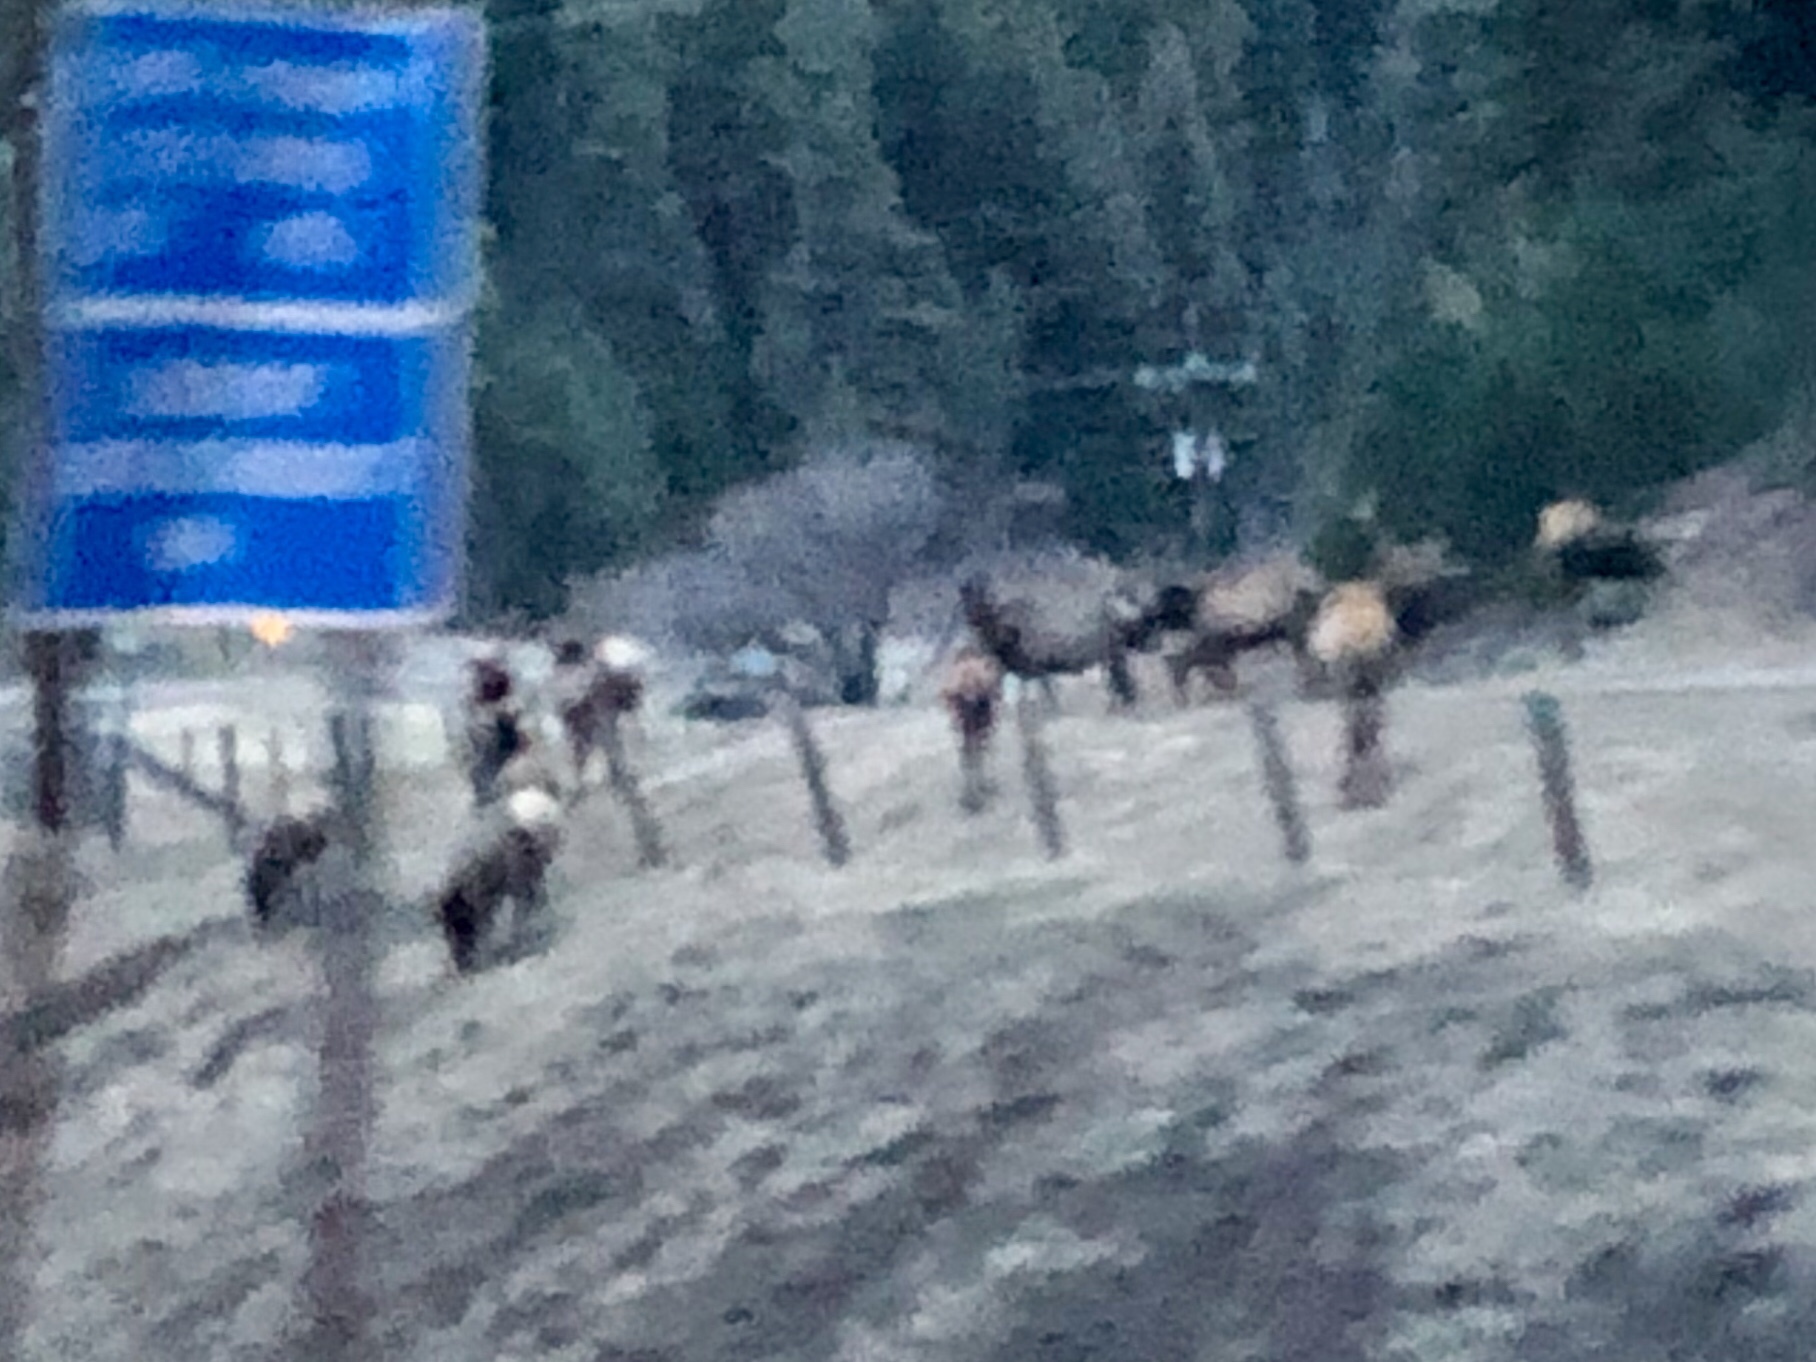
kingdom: Animalia
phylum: Chordata
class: Mammalia
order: Artiodactyla
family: Cervidae
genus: Cervus
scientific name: Cervus elaphus
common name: Red deer
